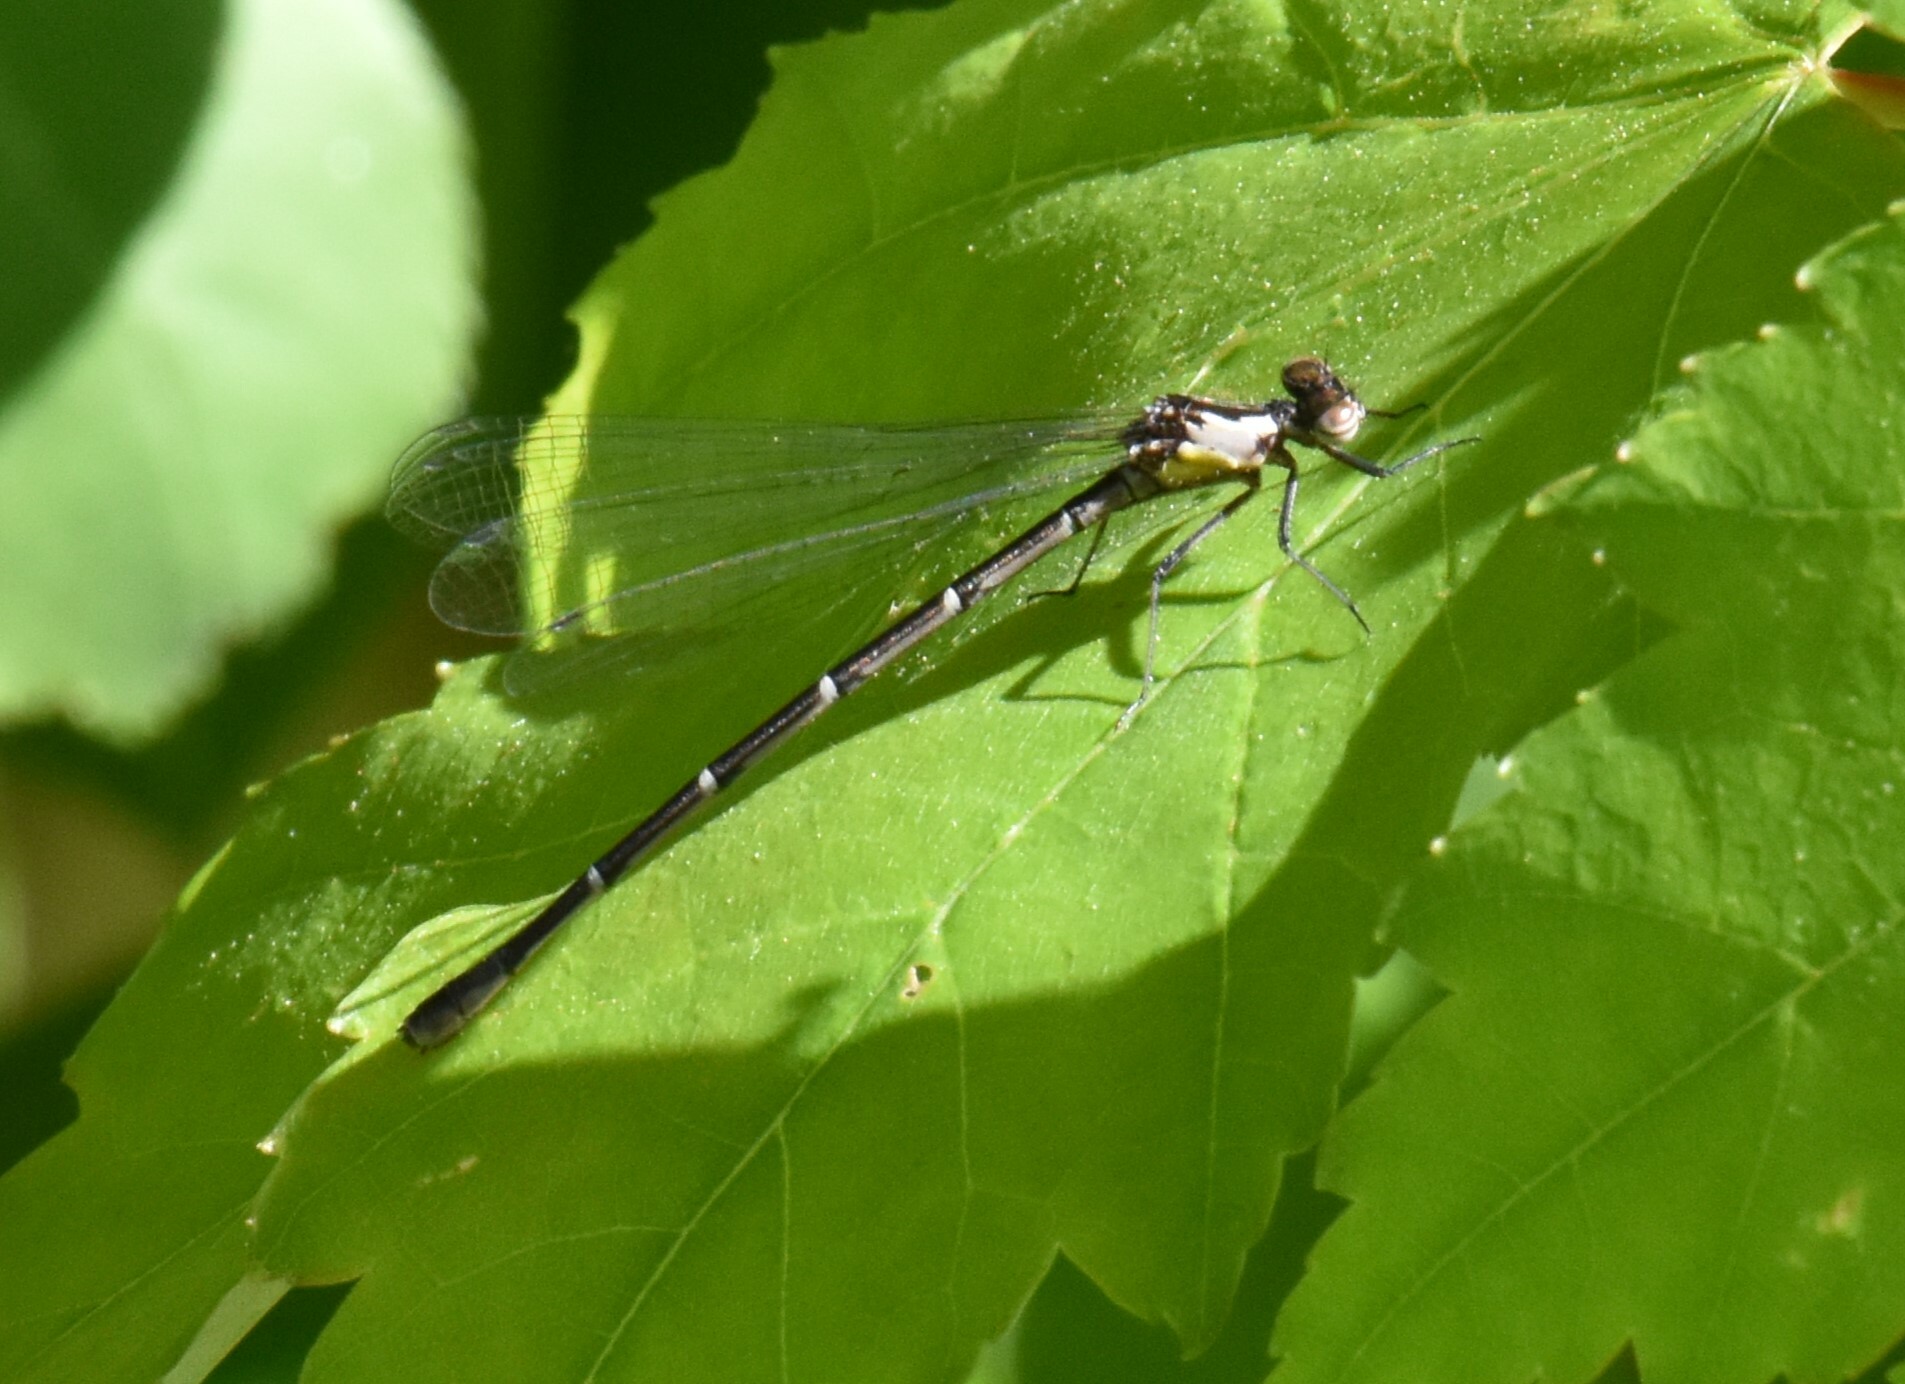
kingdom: Animalia
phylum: Arthropoda
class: Insecta
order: Odonata
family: Coenagrionidae
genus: Chromagrion
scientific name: Chromagrion conditum
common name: Aurora damsel
